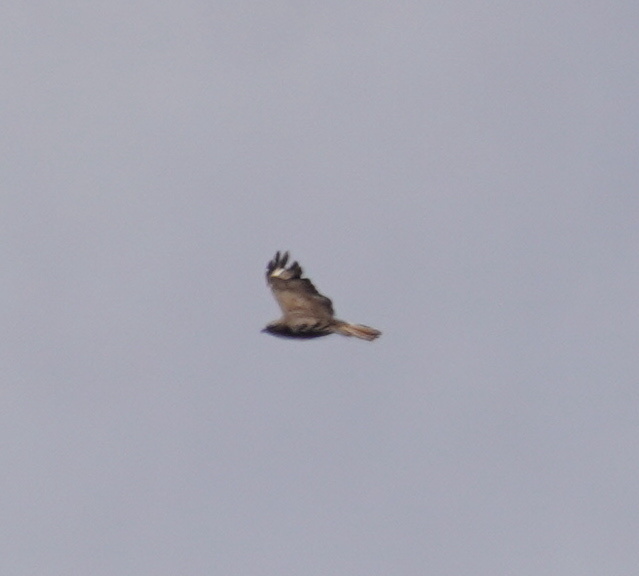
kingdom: Animalia
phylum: Chordata
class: Aves
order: Accipitriformes
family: Accipitridae
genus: Buteo
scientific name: Buteo buteo
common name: Common buzzard
